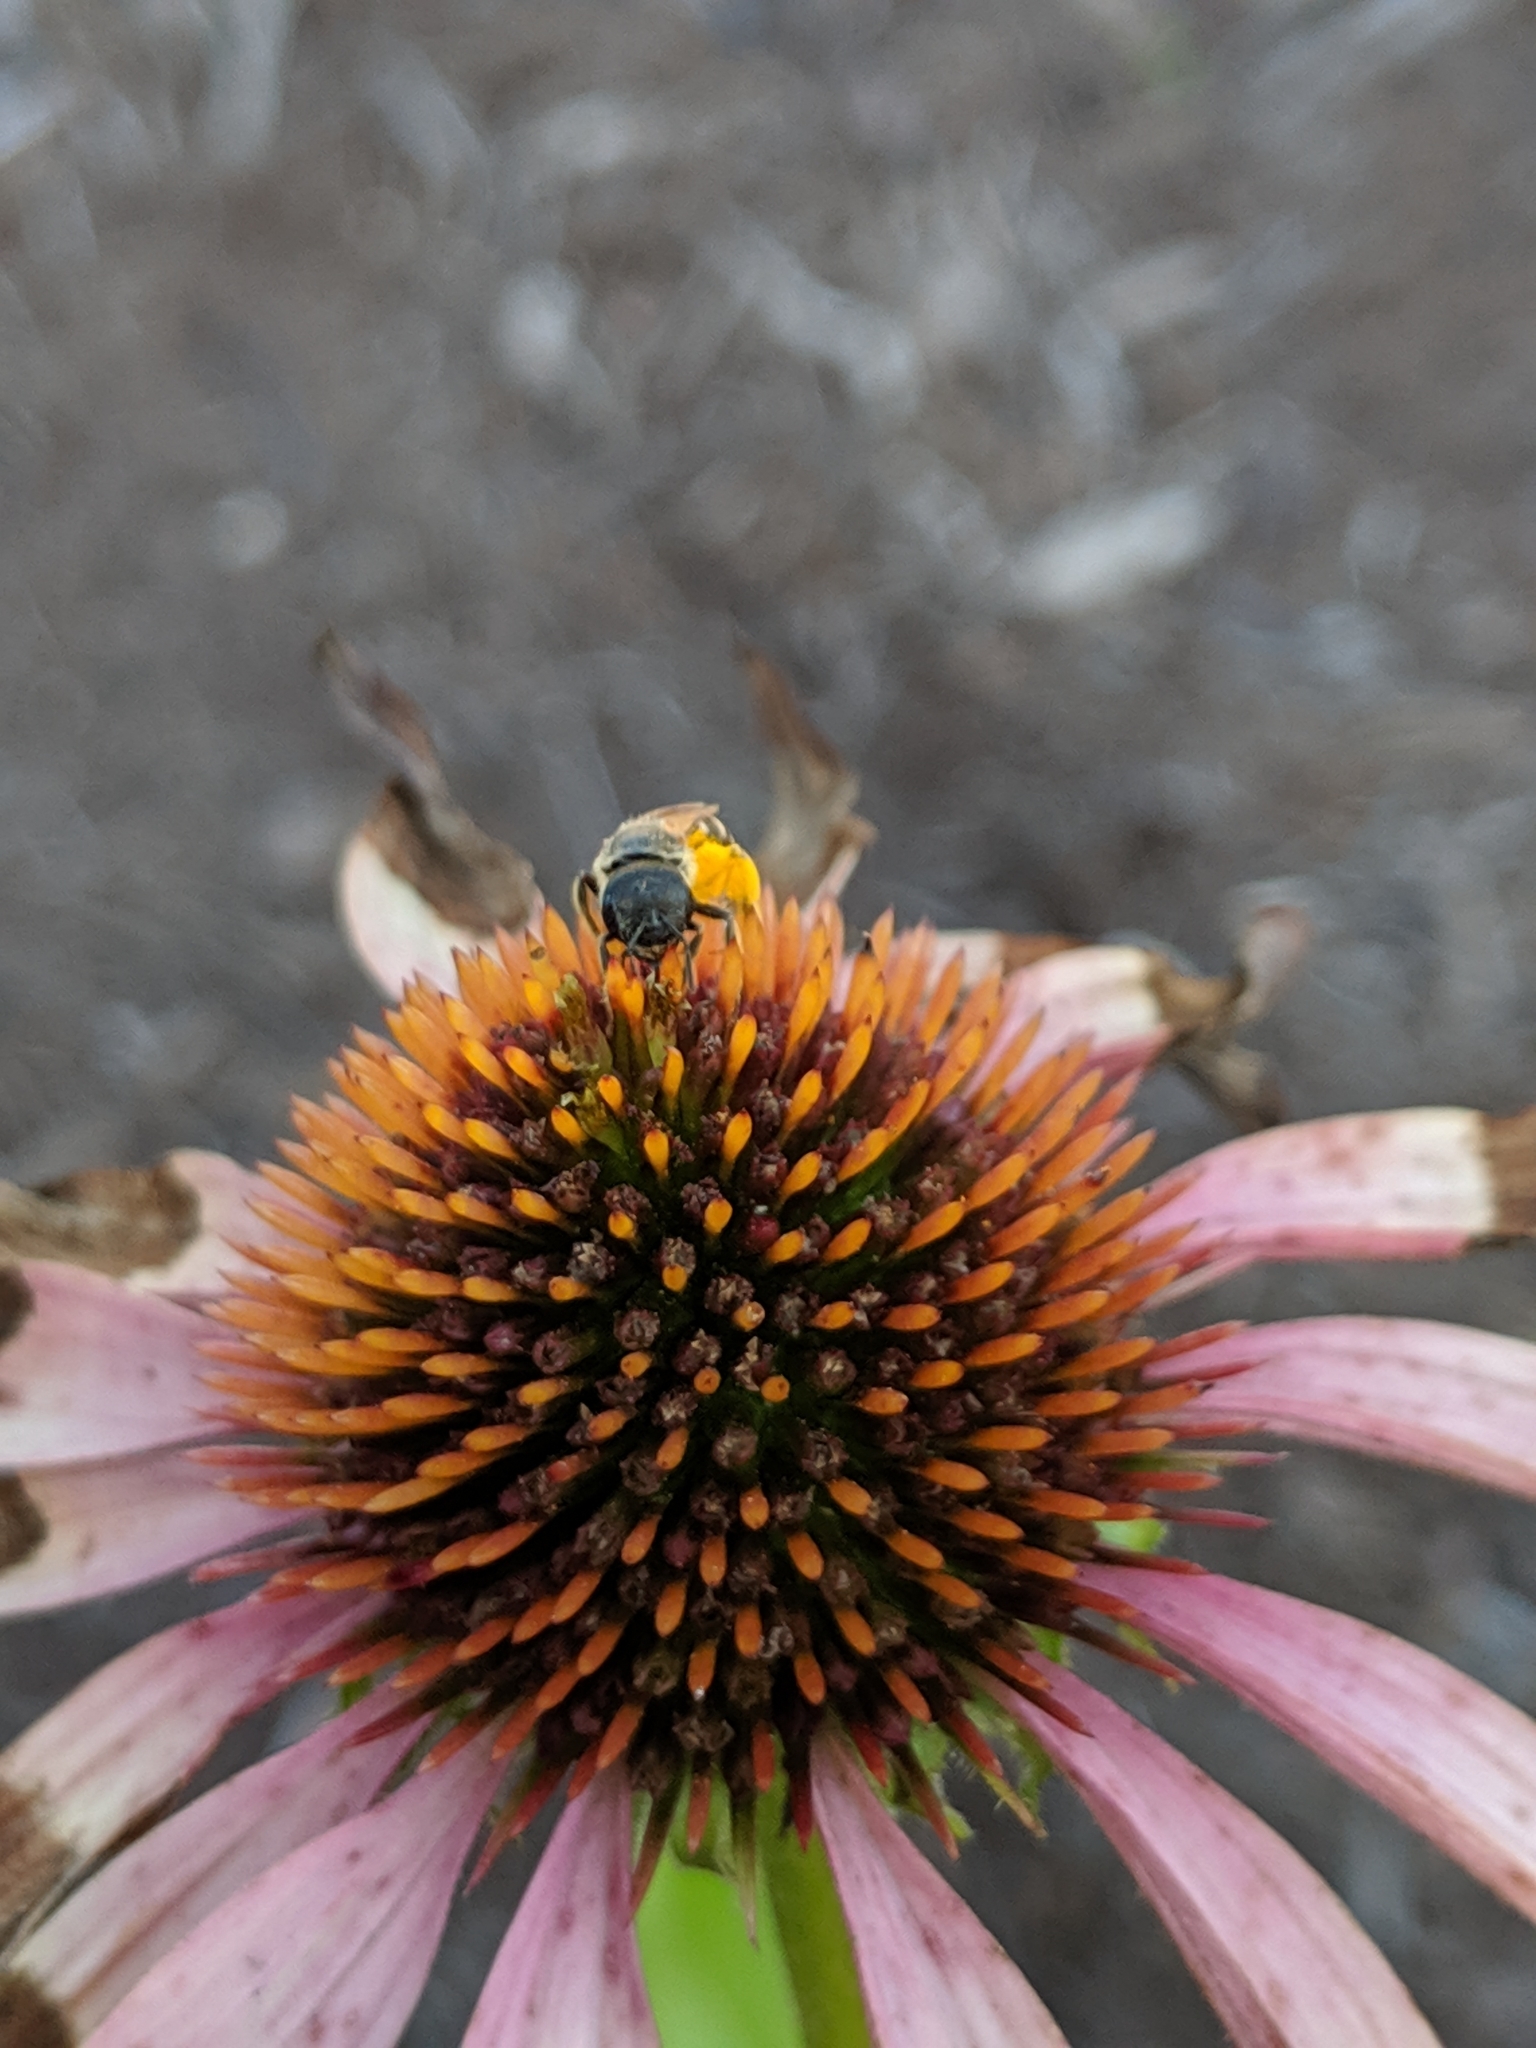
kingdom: Animalia
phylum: Arthropoda
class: Insecta
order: Hymenoptera
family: Halictidae
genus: Halictus
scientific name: Halictus ligatus
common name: Ligated furrow bee
